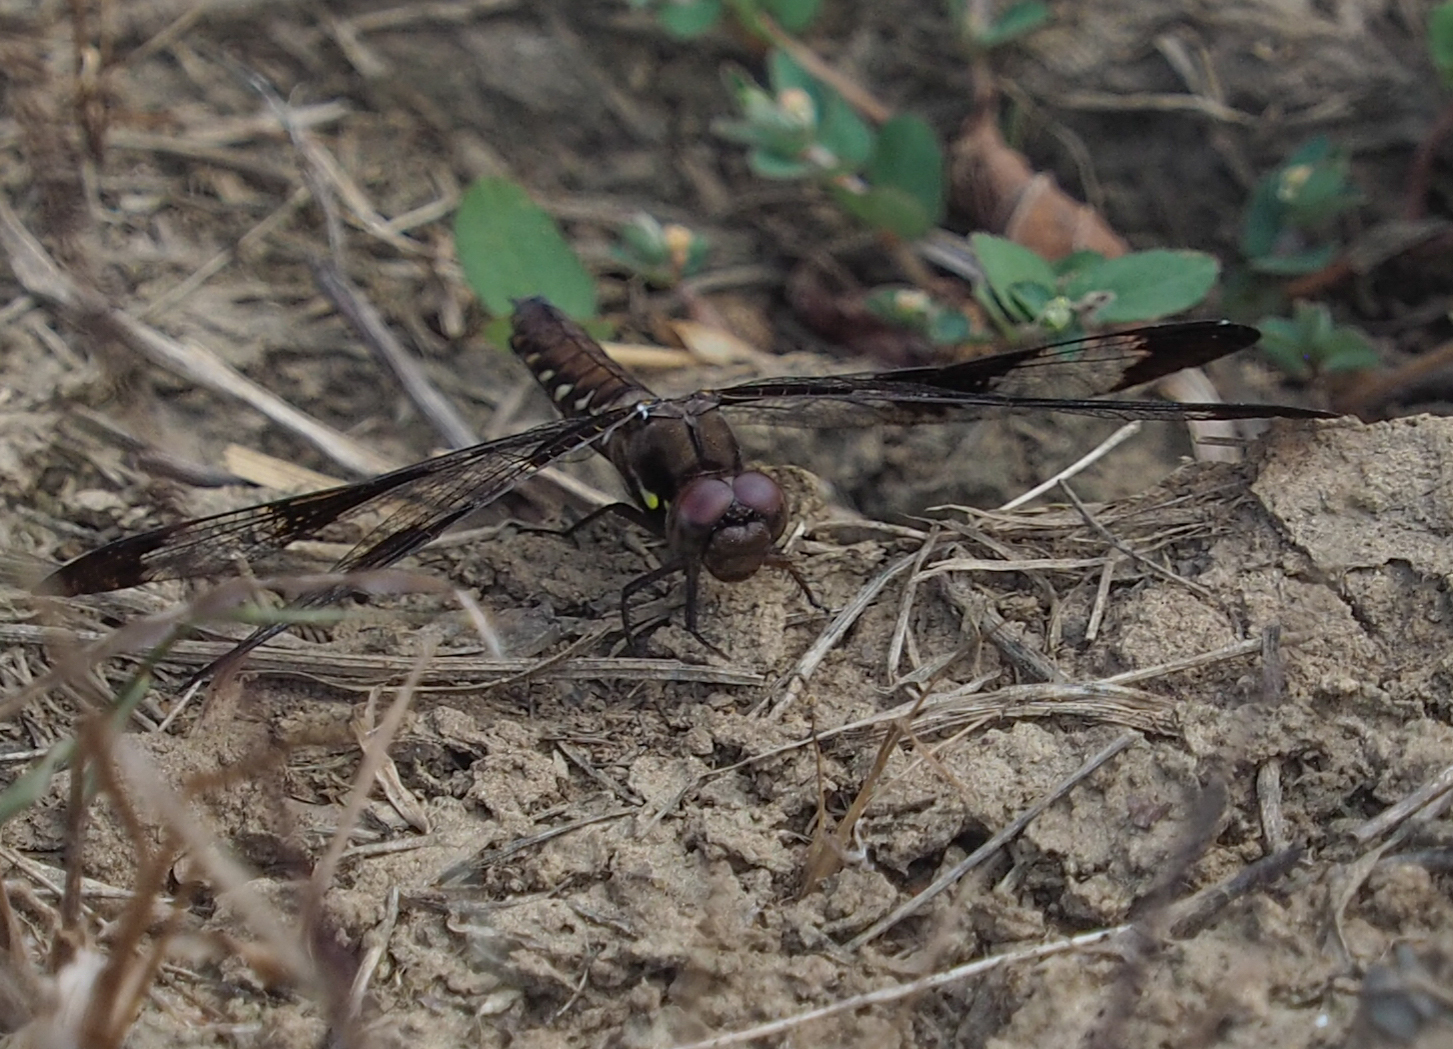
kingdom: Animalia
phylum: Arthropoda
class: Insecta
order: Odonata
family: Libellulidae
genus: Plathemis
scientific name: Plathemis lydia
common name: Common whitetail
